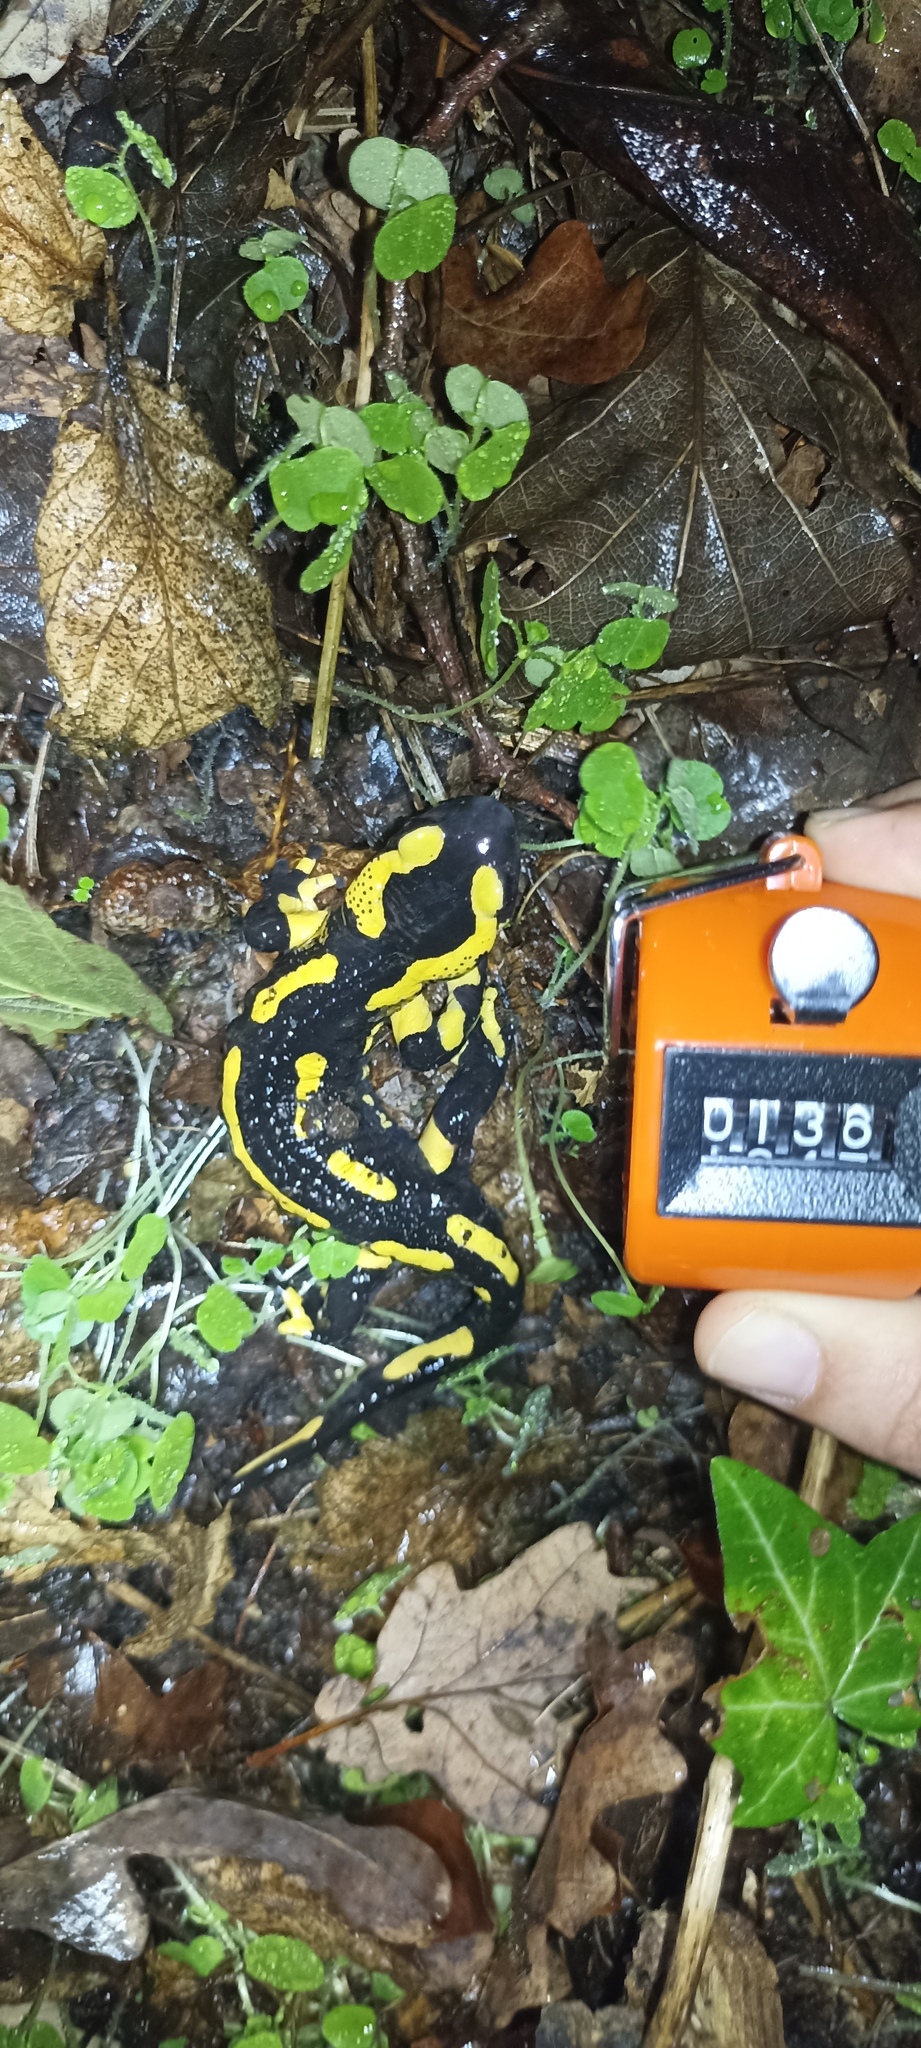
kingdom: Animalia
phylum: Chordata
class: Amphibia
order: Caudata
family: Salamandridae
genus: Salamandra
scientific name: Salamandra salamandra
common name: Fire salamander
